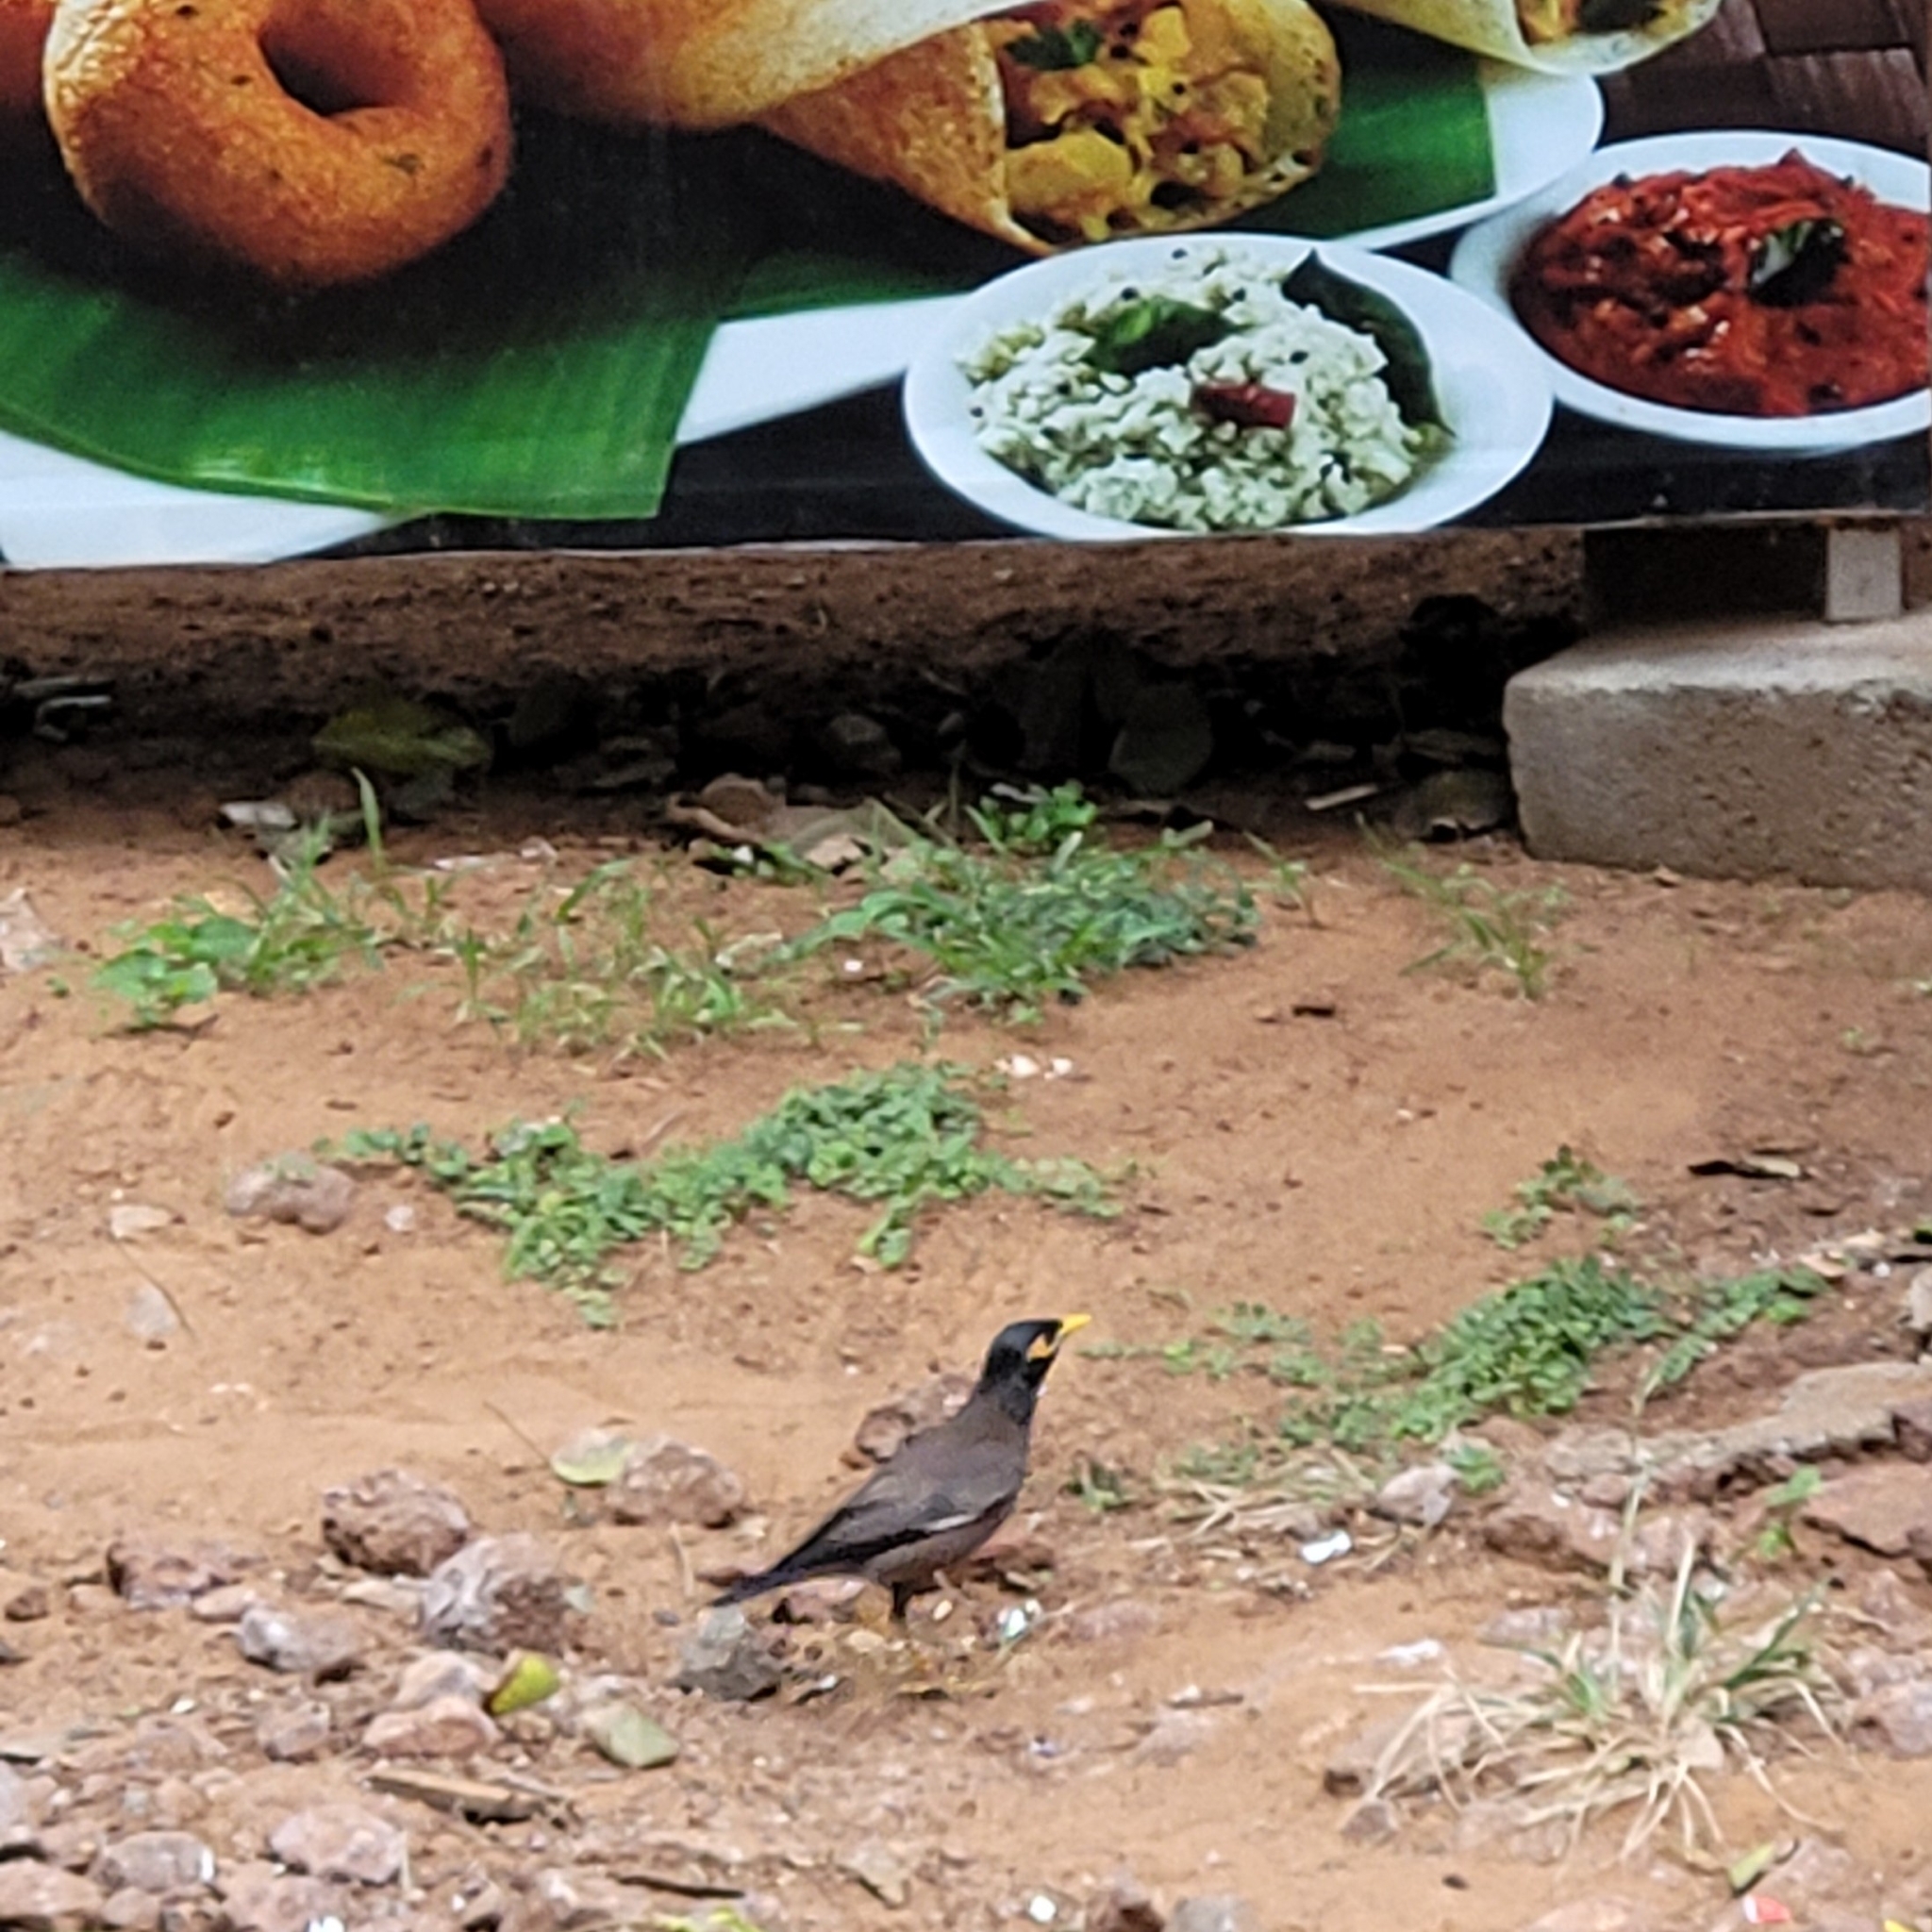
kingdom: Animalia
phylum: Chordata
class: Aves
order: Passeriformes
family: Sturnidae
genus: Acridotheres
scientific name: Acridotheres tristis
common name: Common myna
